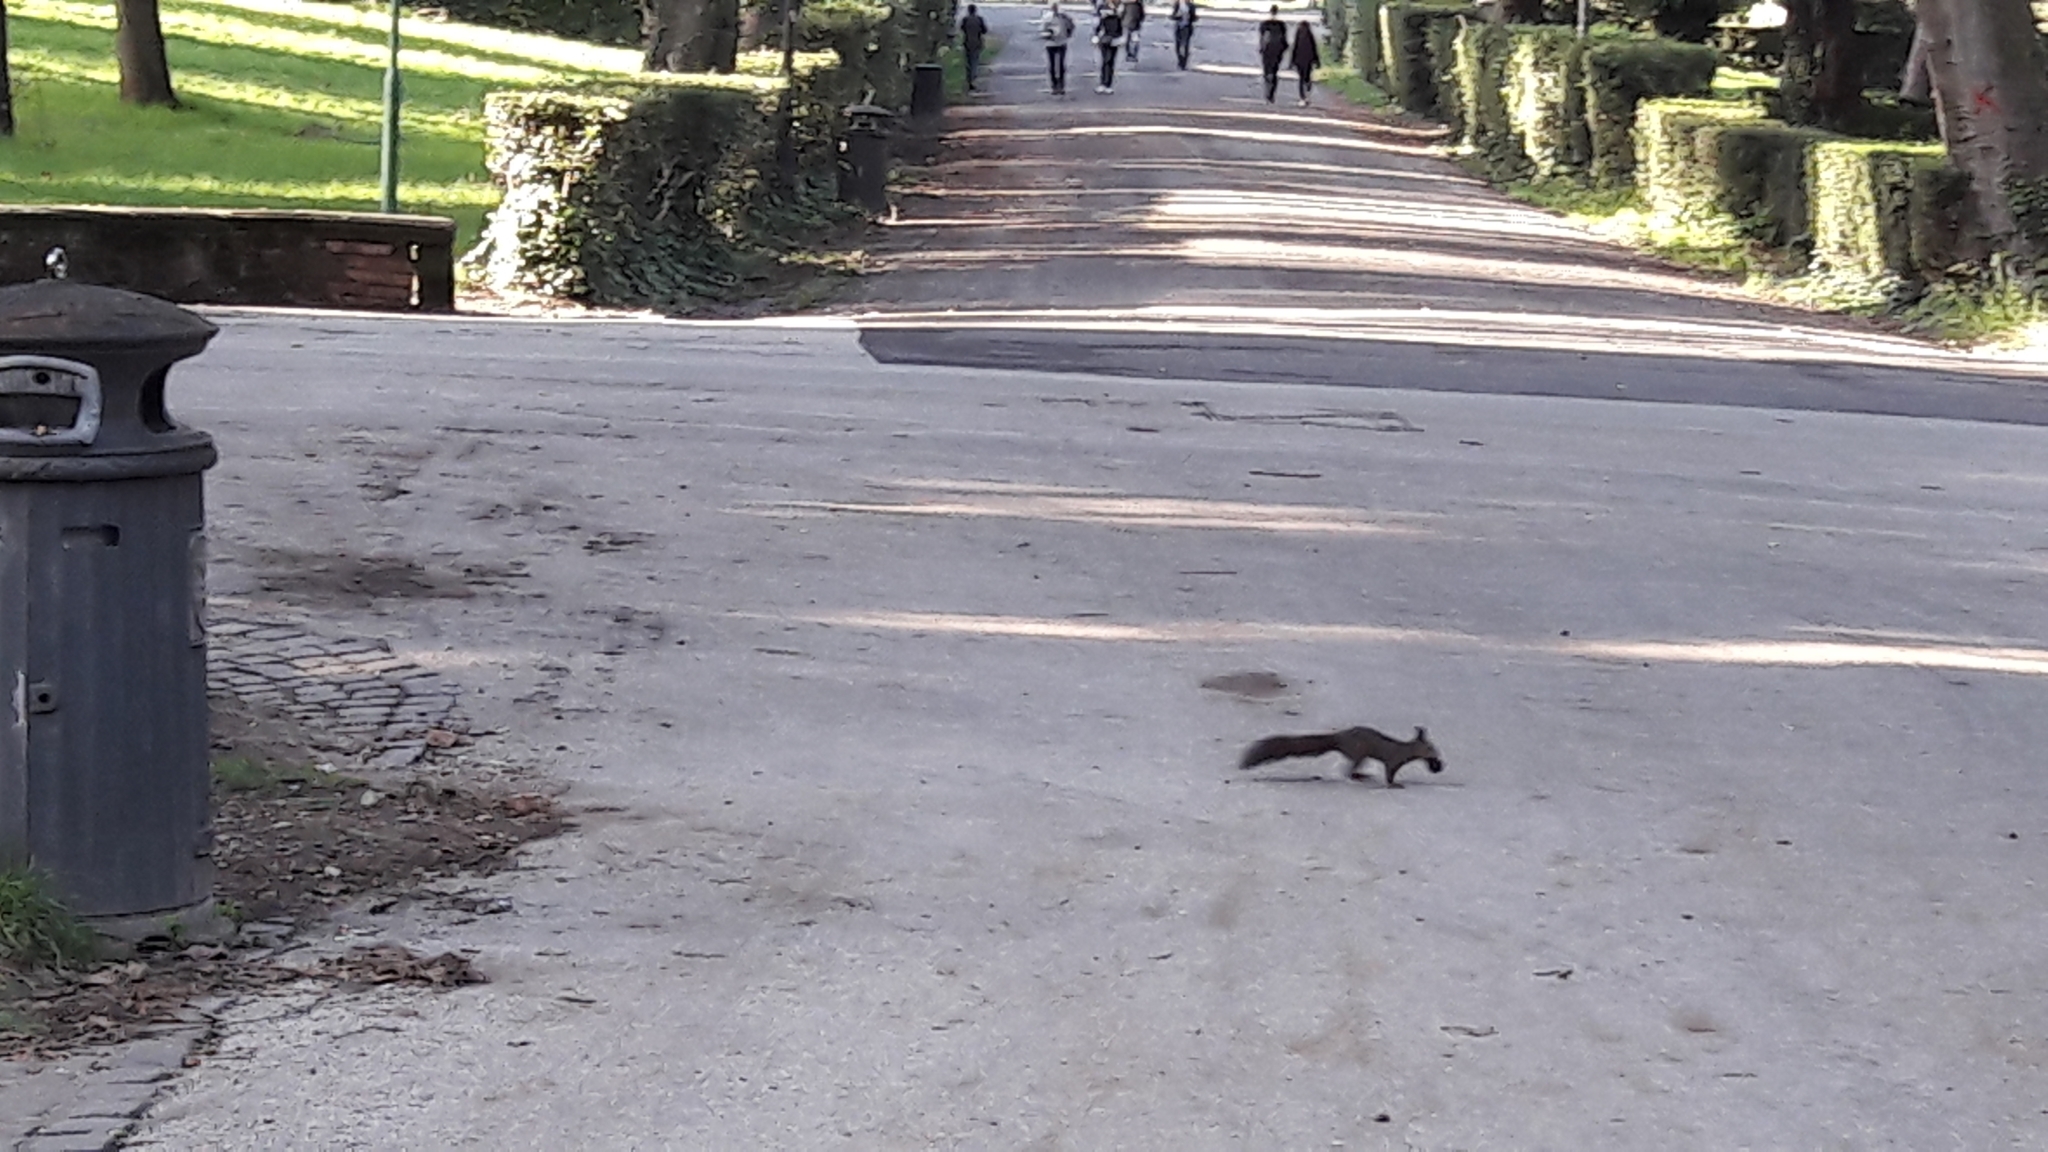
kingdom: Animalia
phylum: Chordata
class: Mammalia
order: Rodentia
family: Sciuridae
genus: Sciurus
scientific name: Sciurus vulgaris
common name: Eurasian red squirrel
